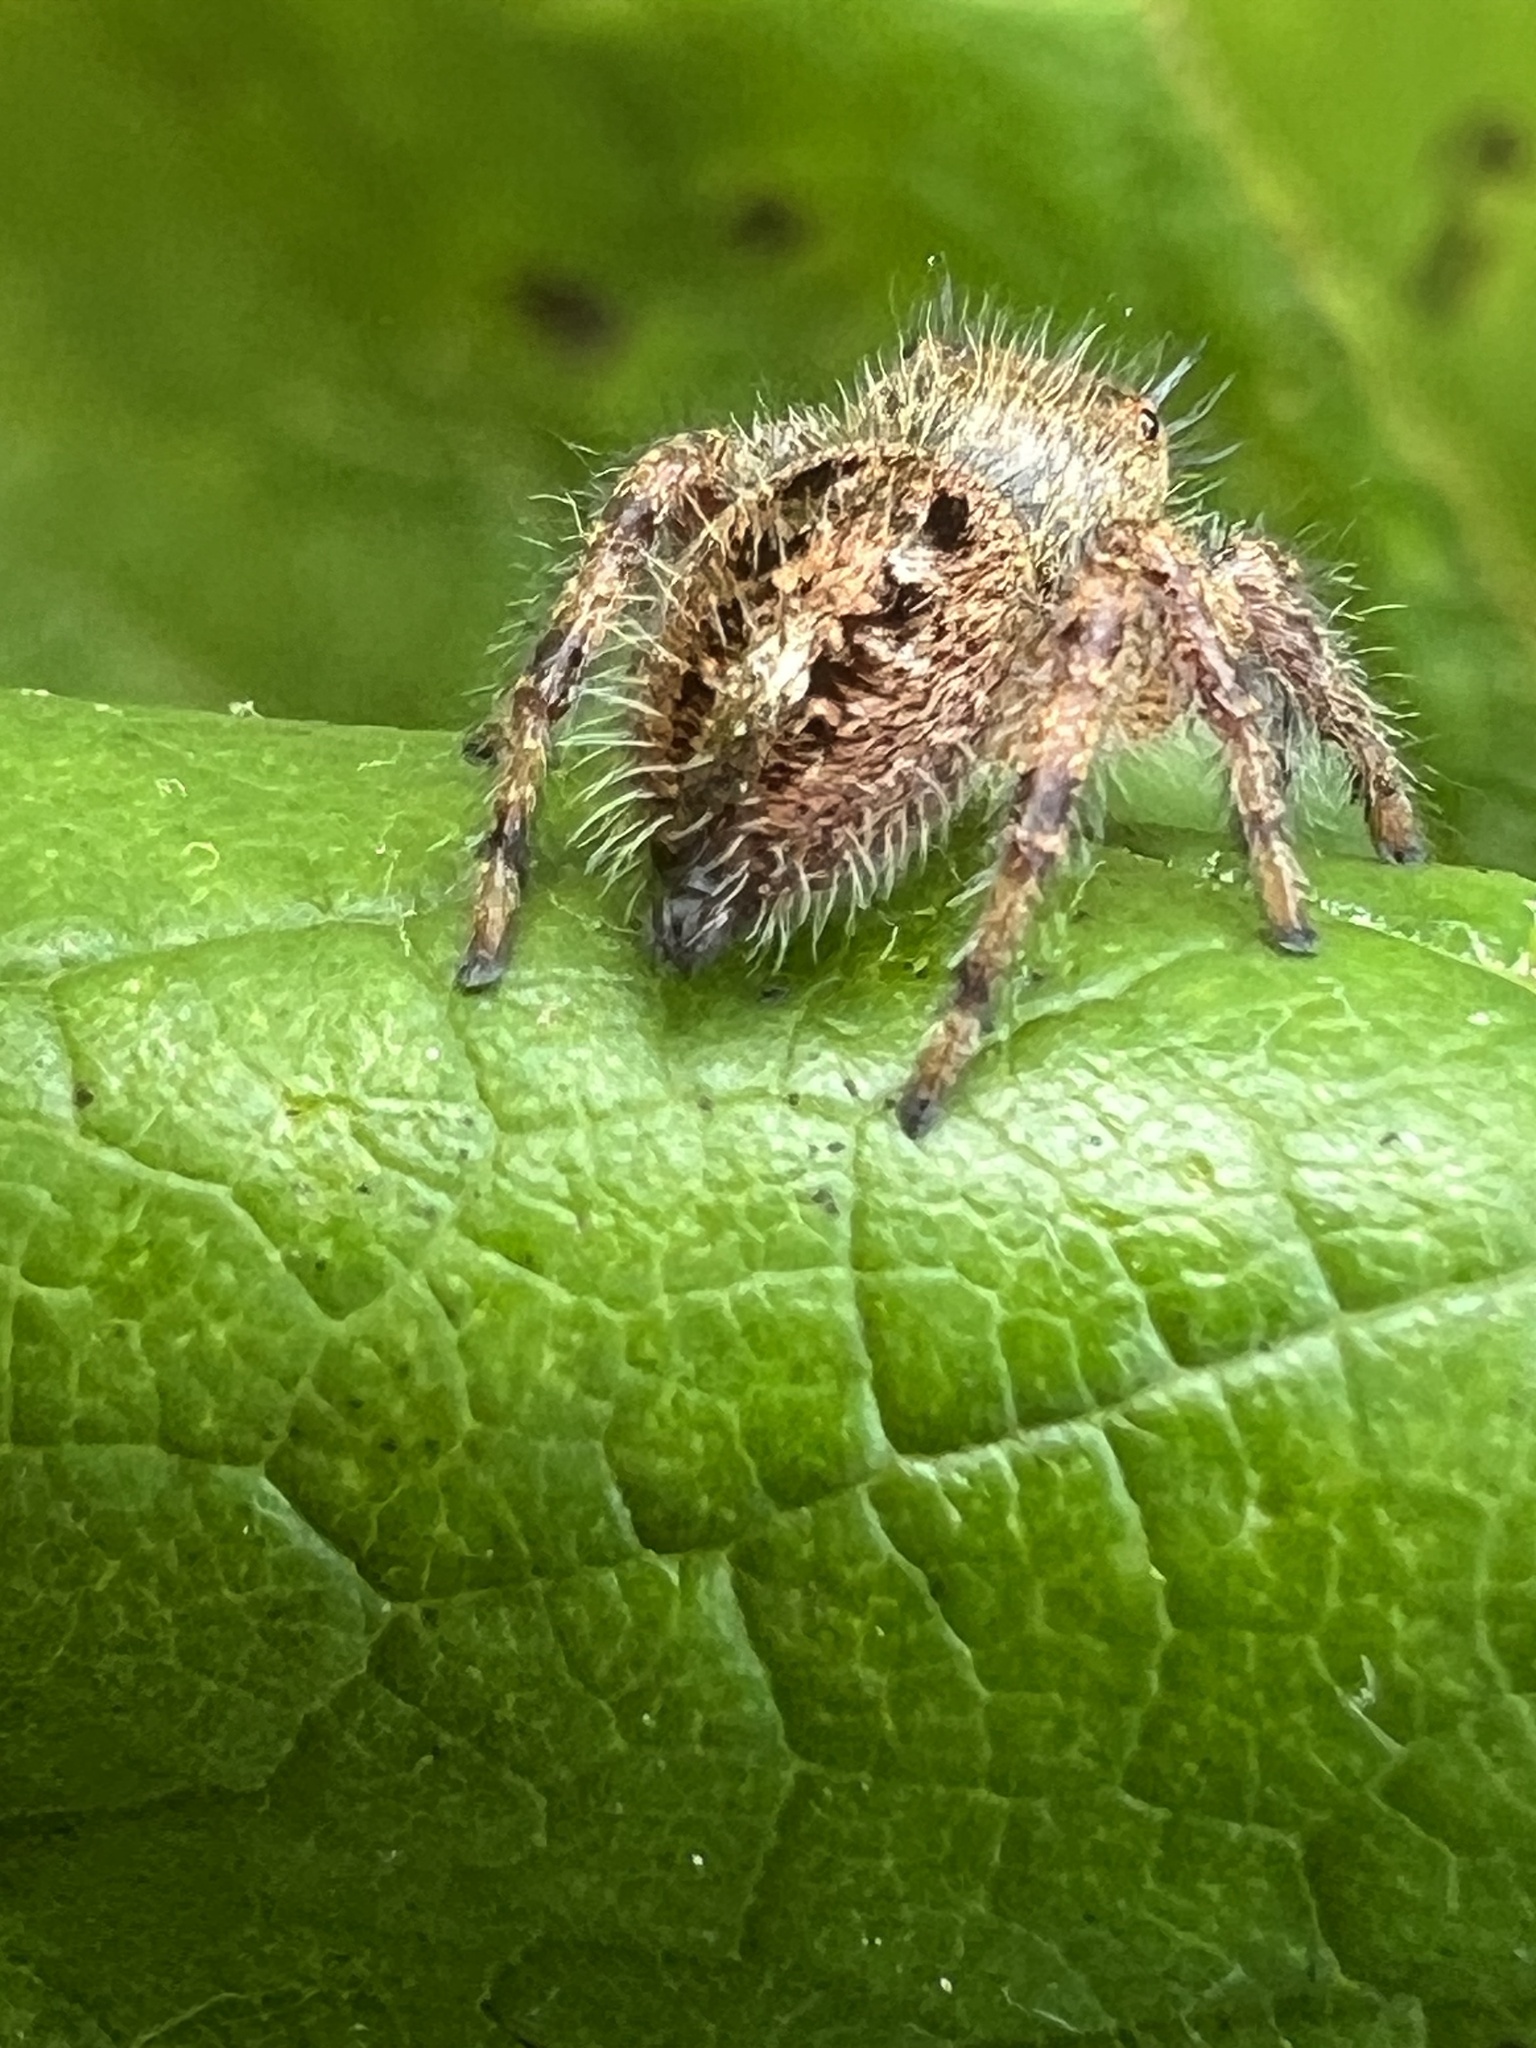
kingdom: Animalia
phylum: Arthropoda
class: Arachnida
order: Araneae
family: Salticidae
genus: Phidippus
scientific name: Phidippus princeps
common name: Grayish jumping spider
